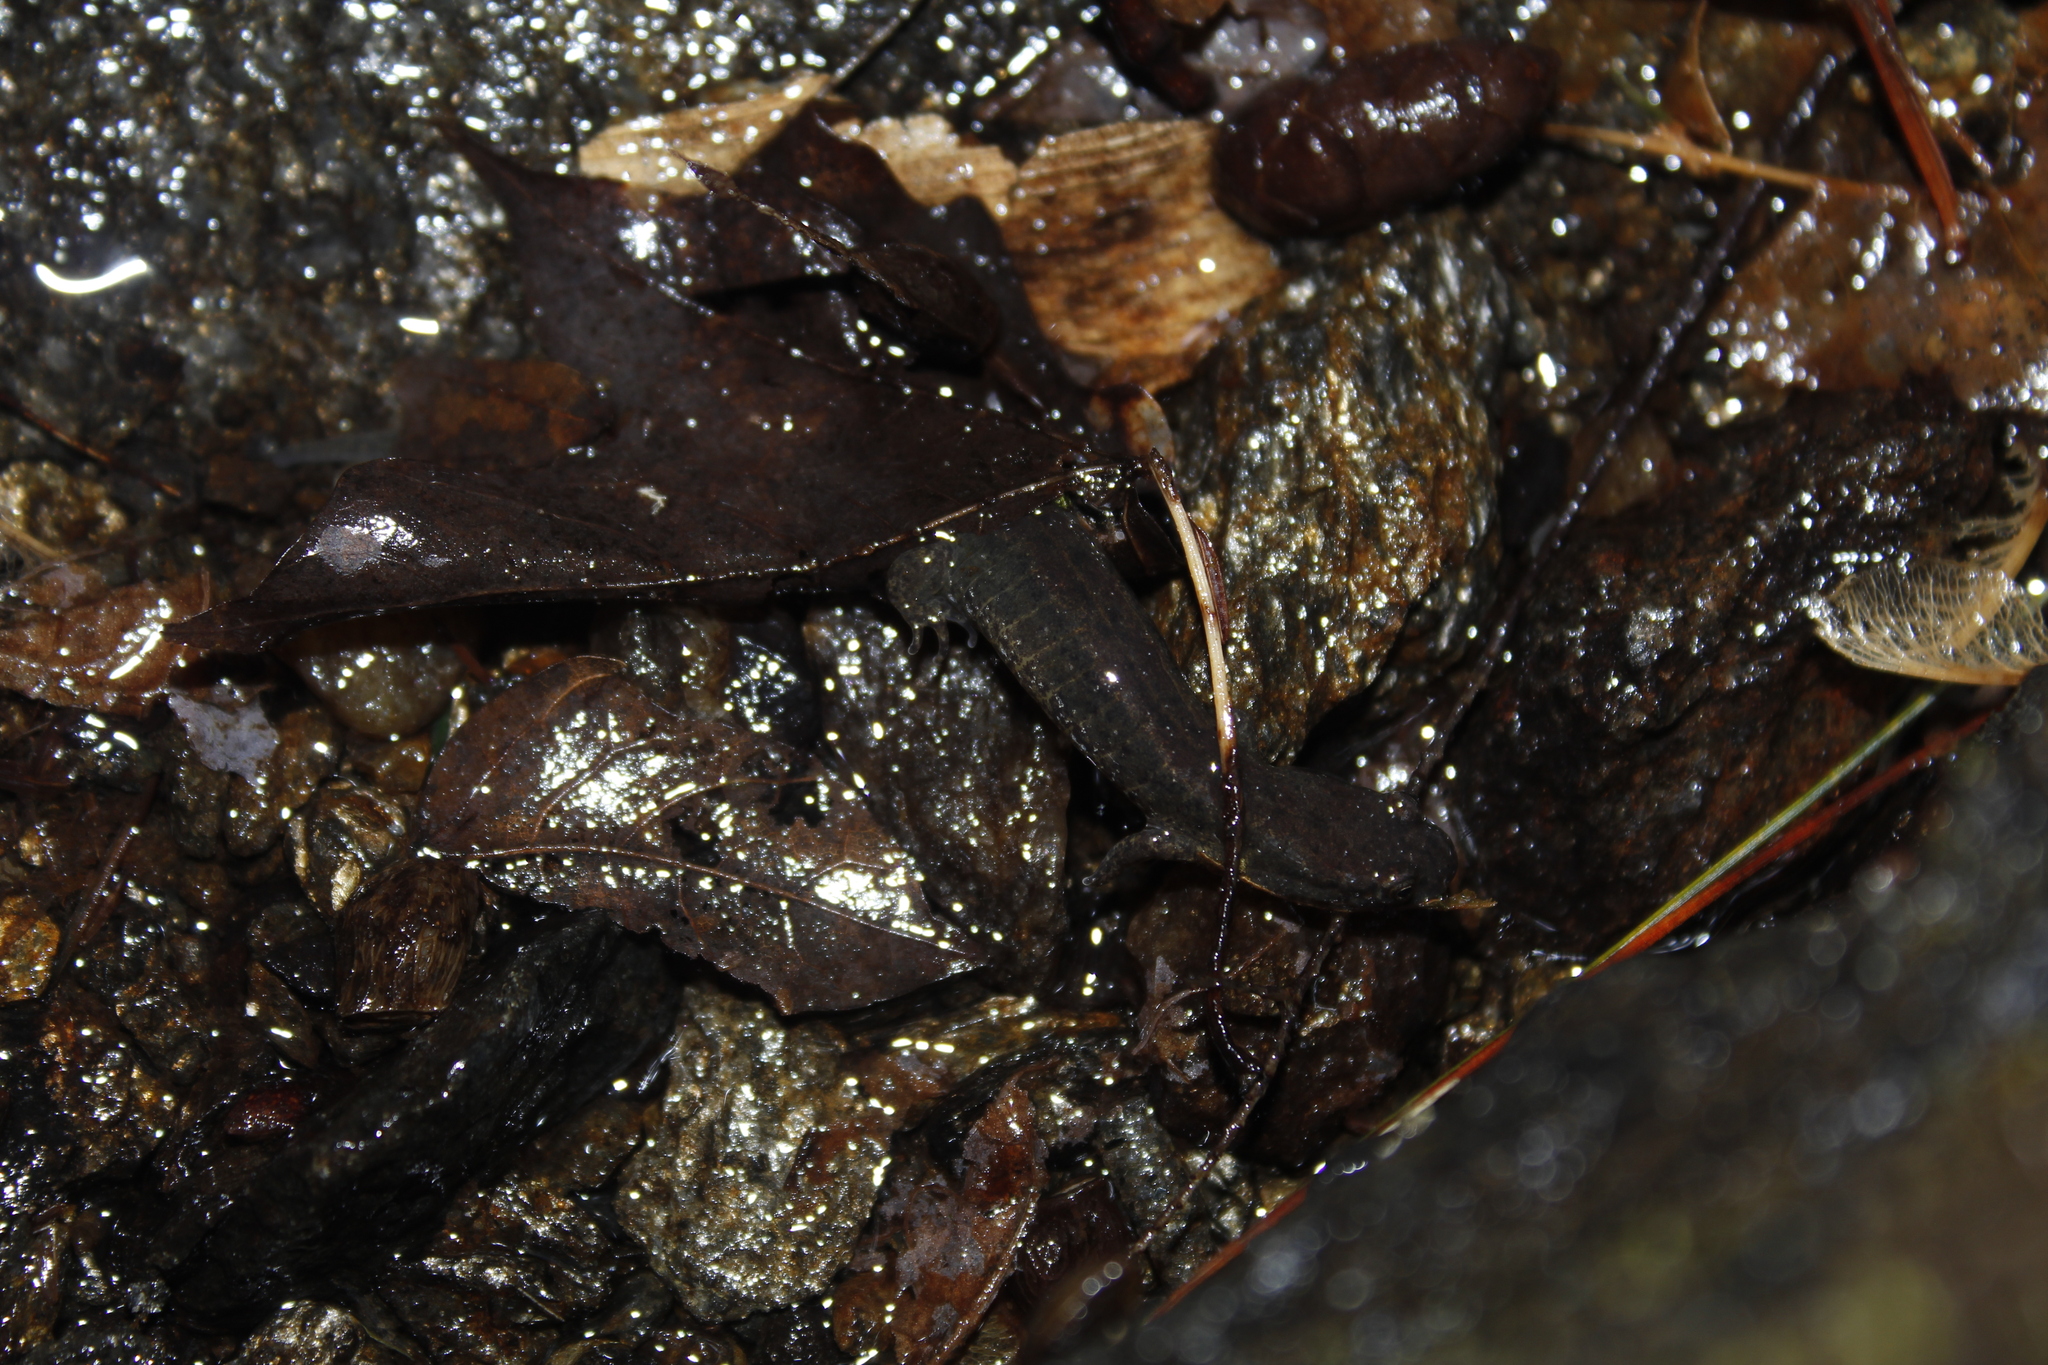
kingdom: Animalia
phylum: Chordata
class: Amphibia
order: Caudata
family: Plethodontidae
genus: Desmognathus
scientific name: Desmognathus fuscus
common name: Northern dusky salamander
